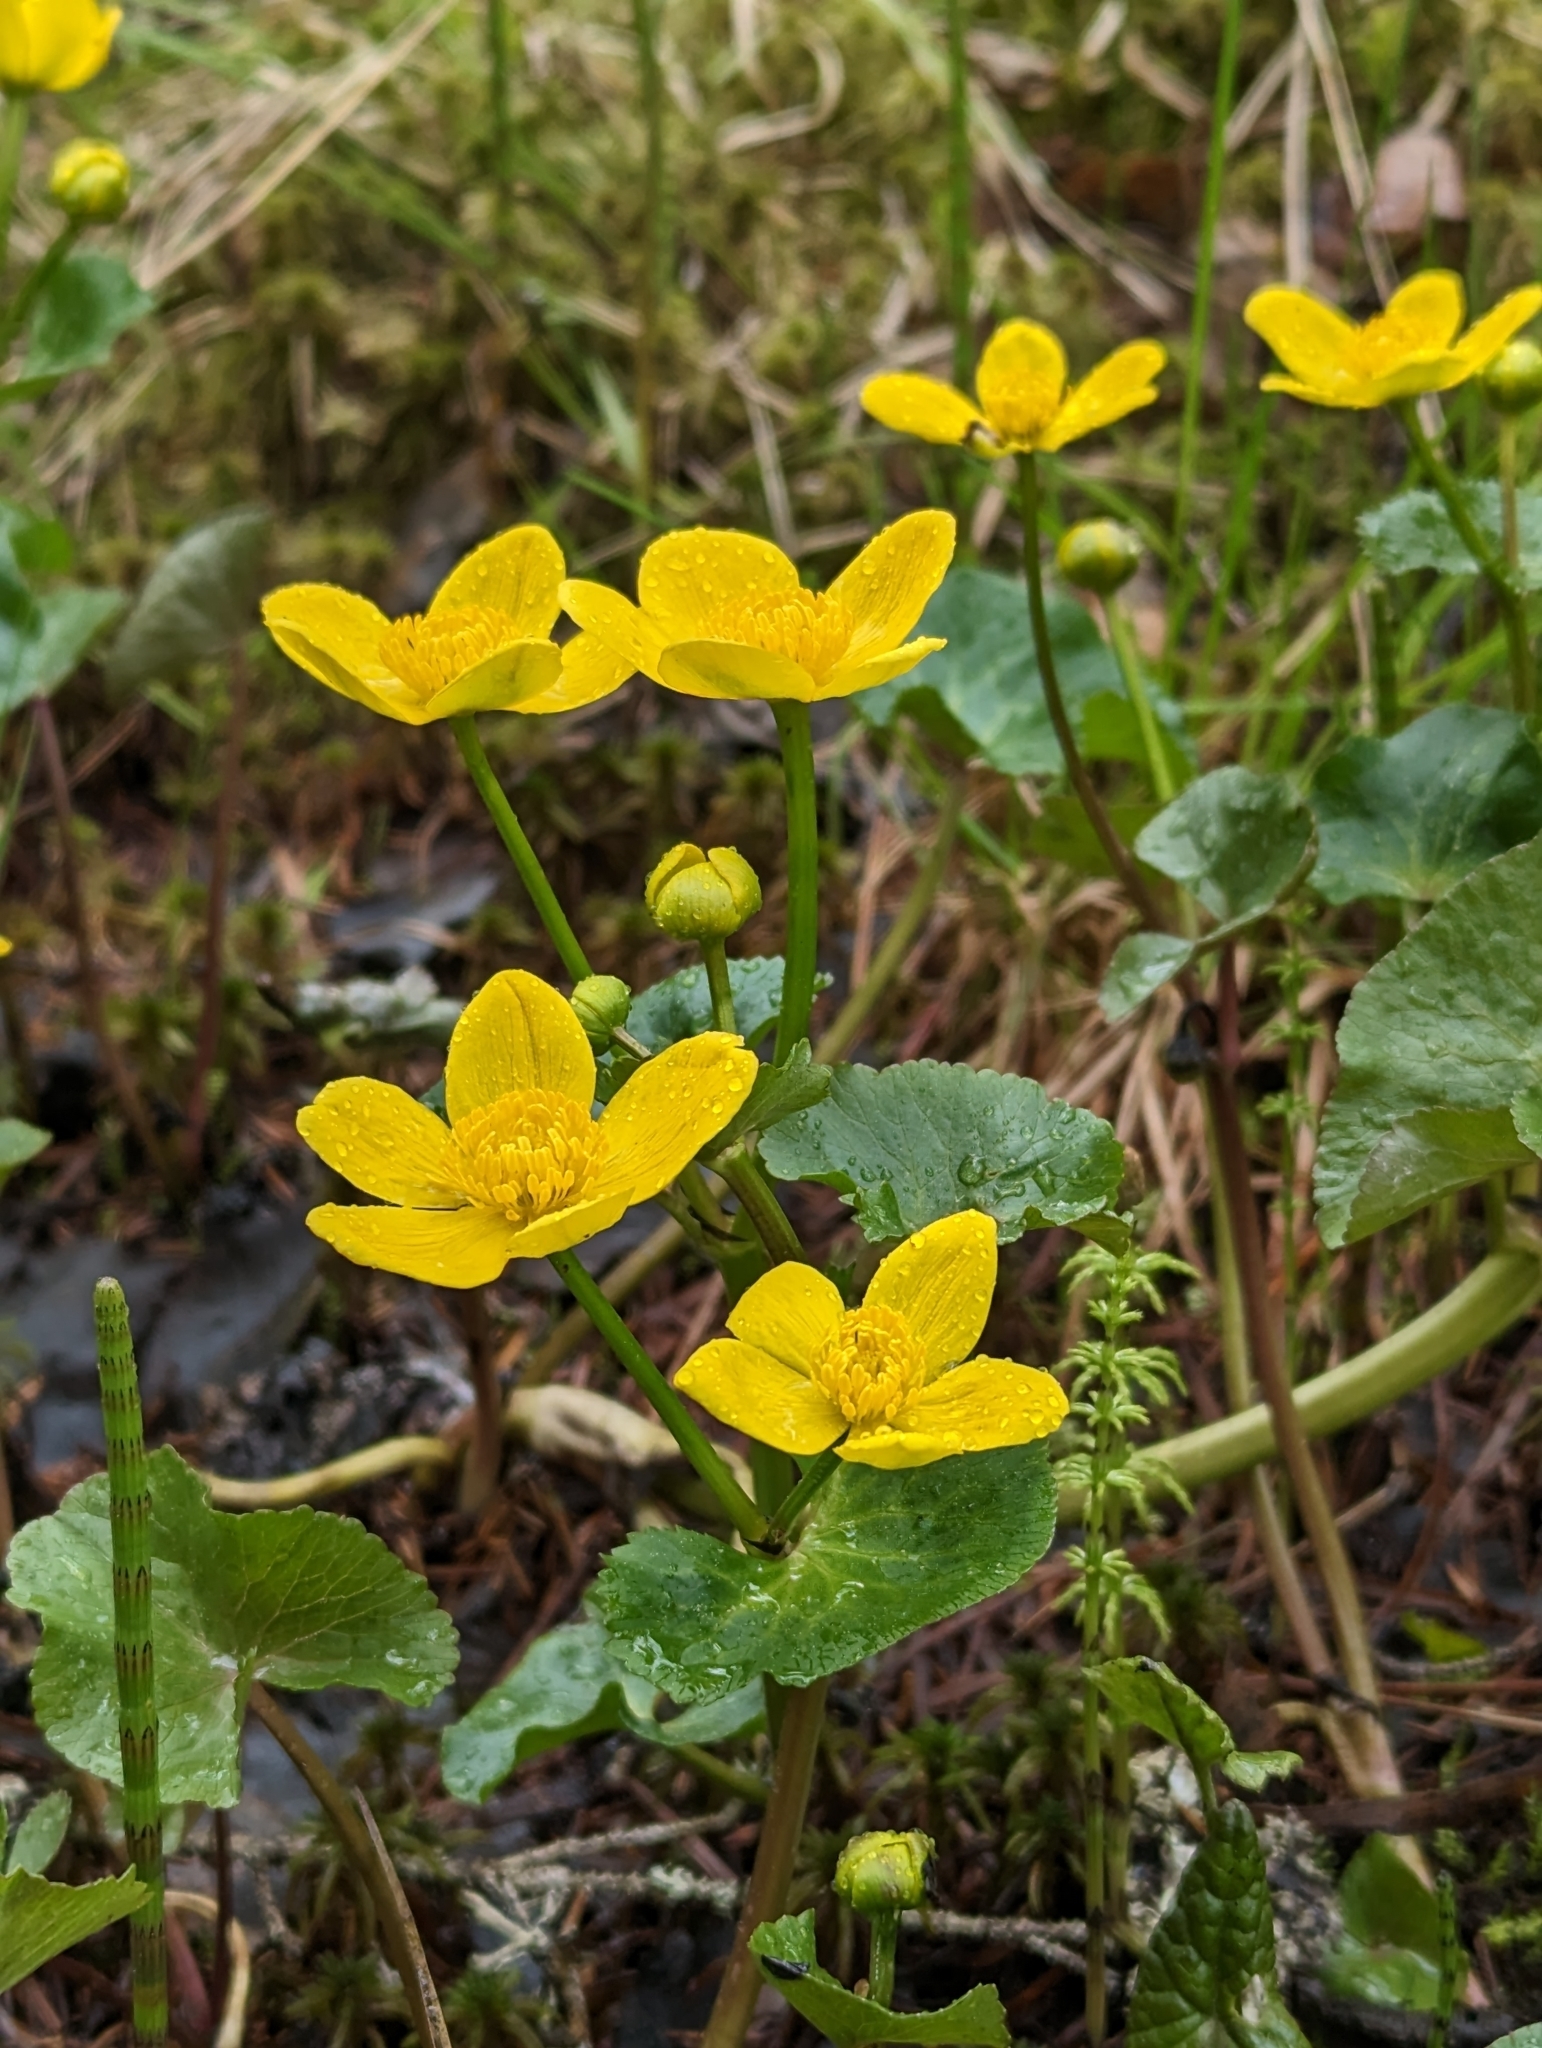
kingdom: Plantae
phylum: Tracheophyta
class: Magnoliopsida
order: Ranunculales
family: Ranunculaceae
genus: Caltha
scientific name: Caltha palustris
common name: Marsh marigold
